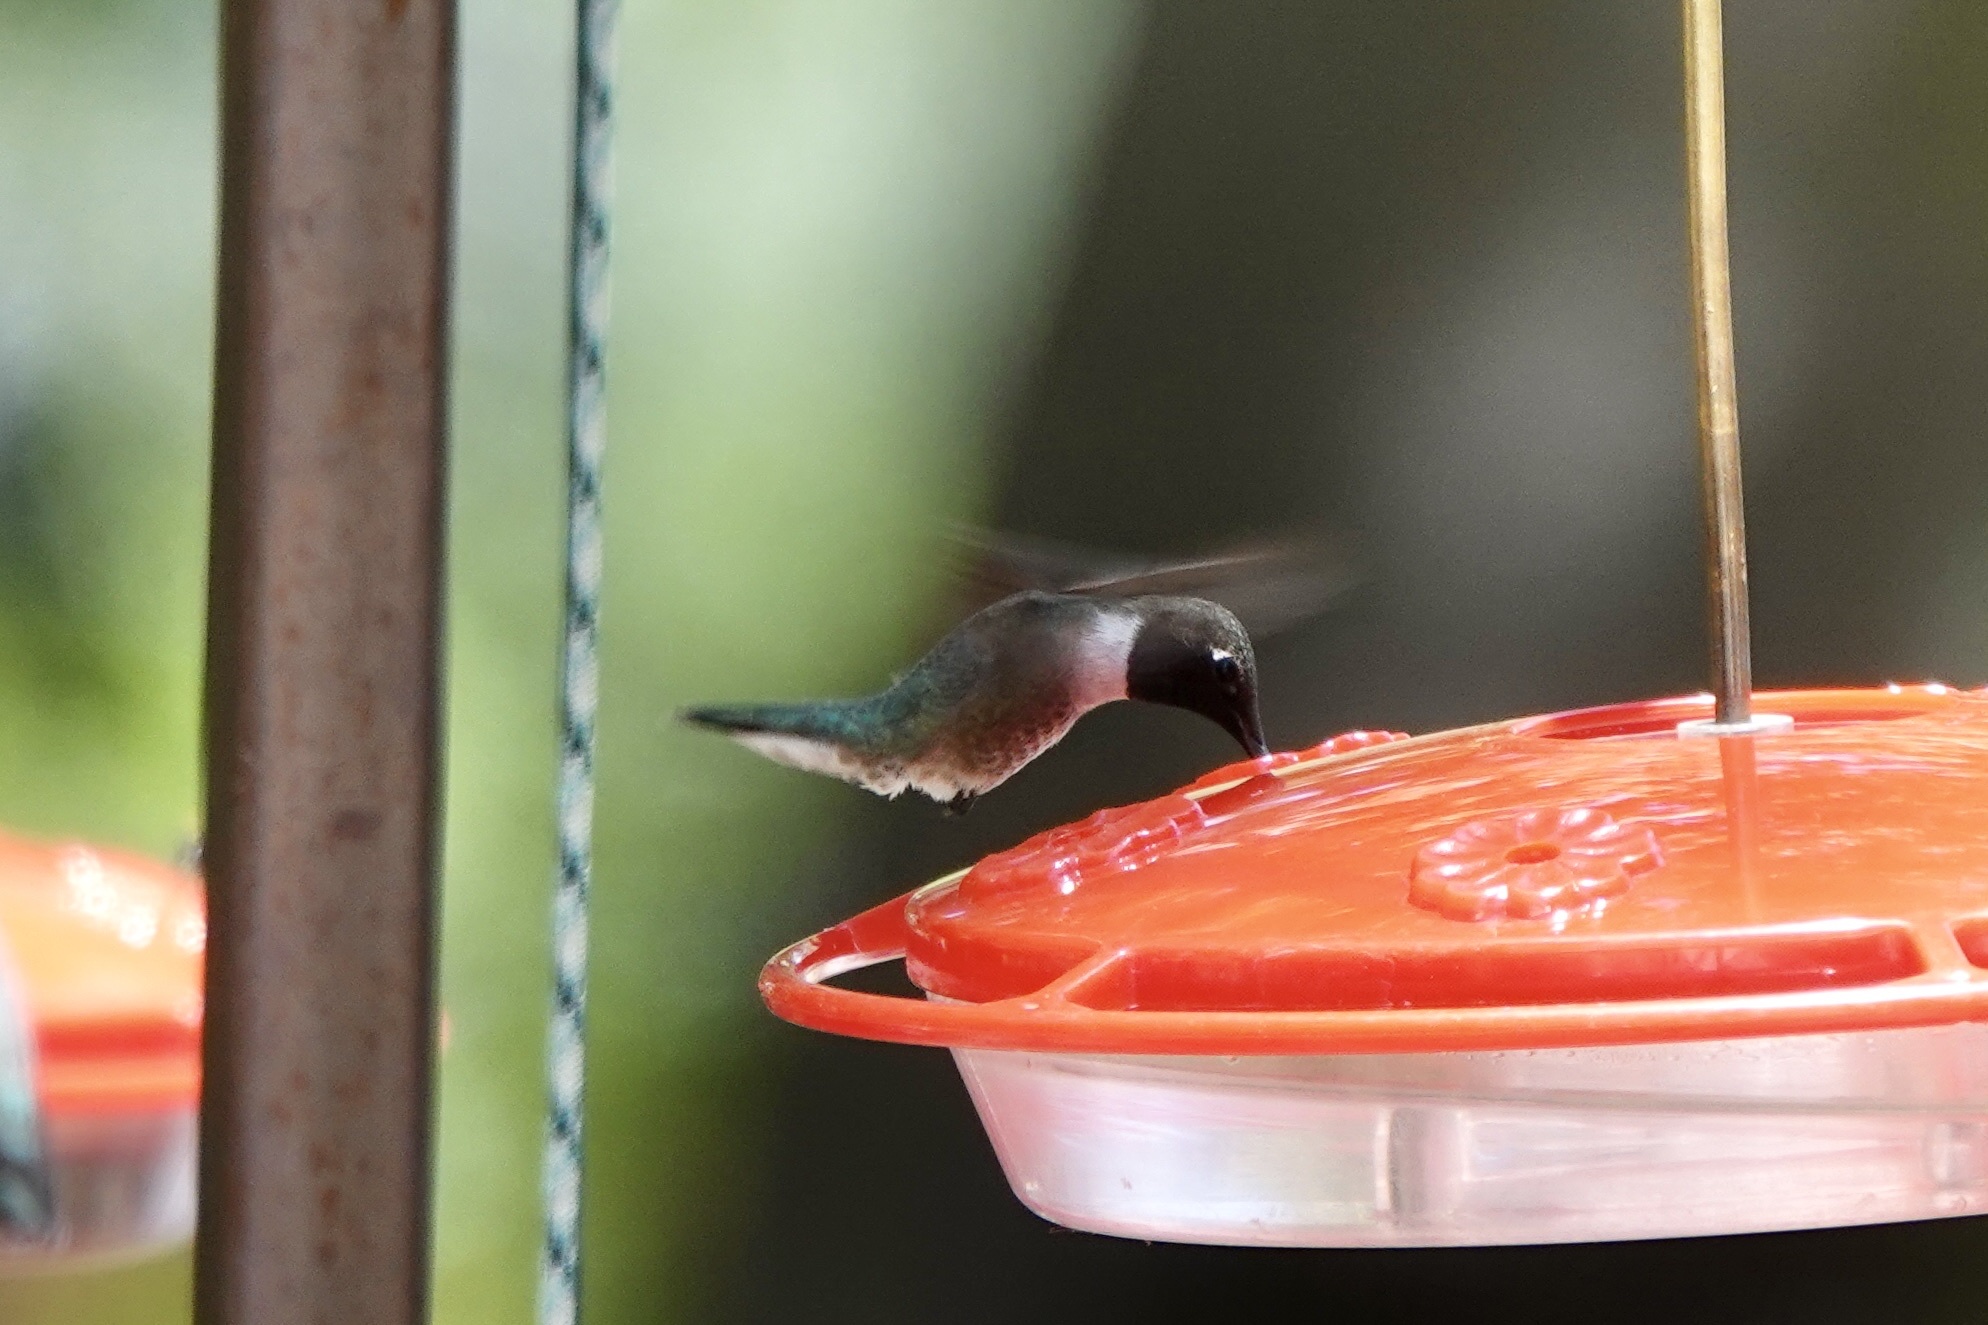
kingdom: Animalia
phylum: Chordata
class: Aves
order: Apodiformes
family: Trochilidae
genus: Archilochus
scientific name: Archilochus alexandri
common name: Black-chinned hummingbird
